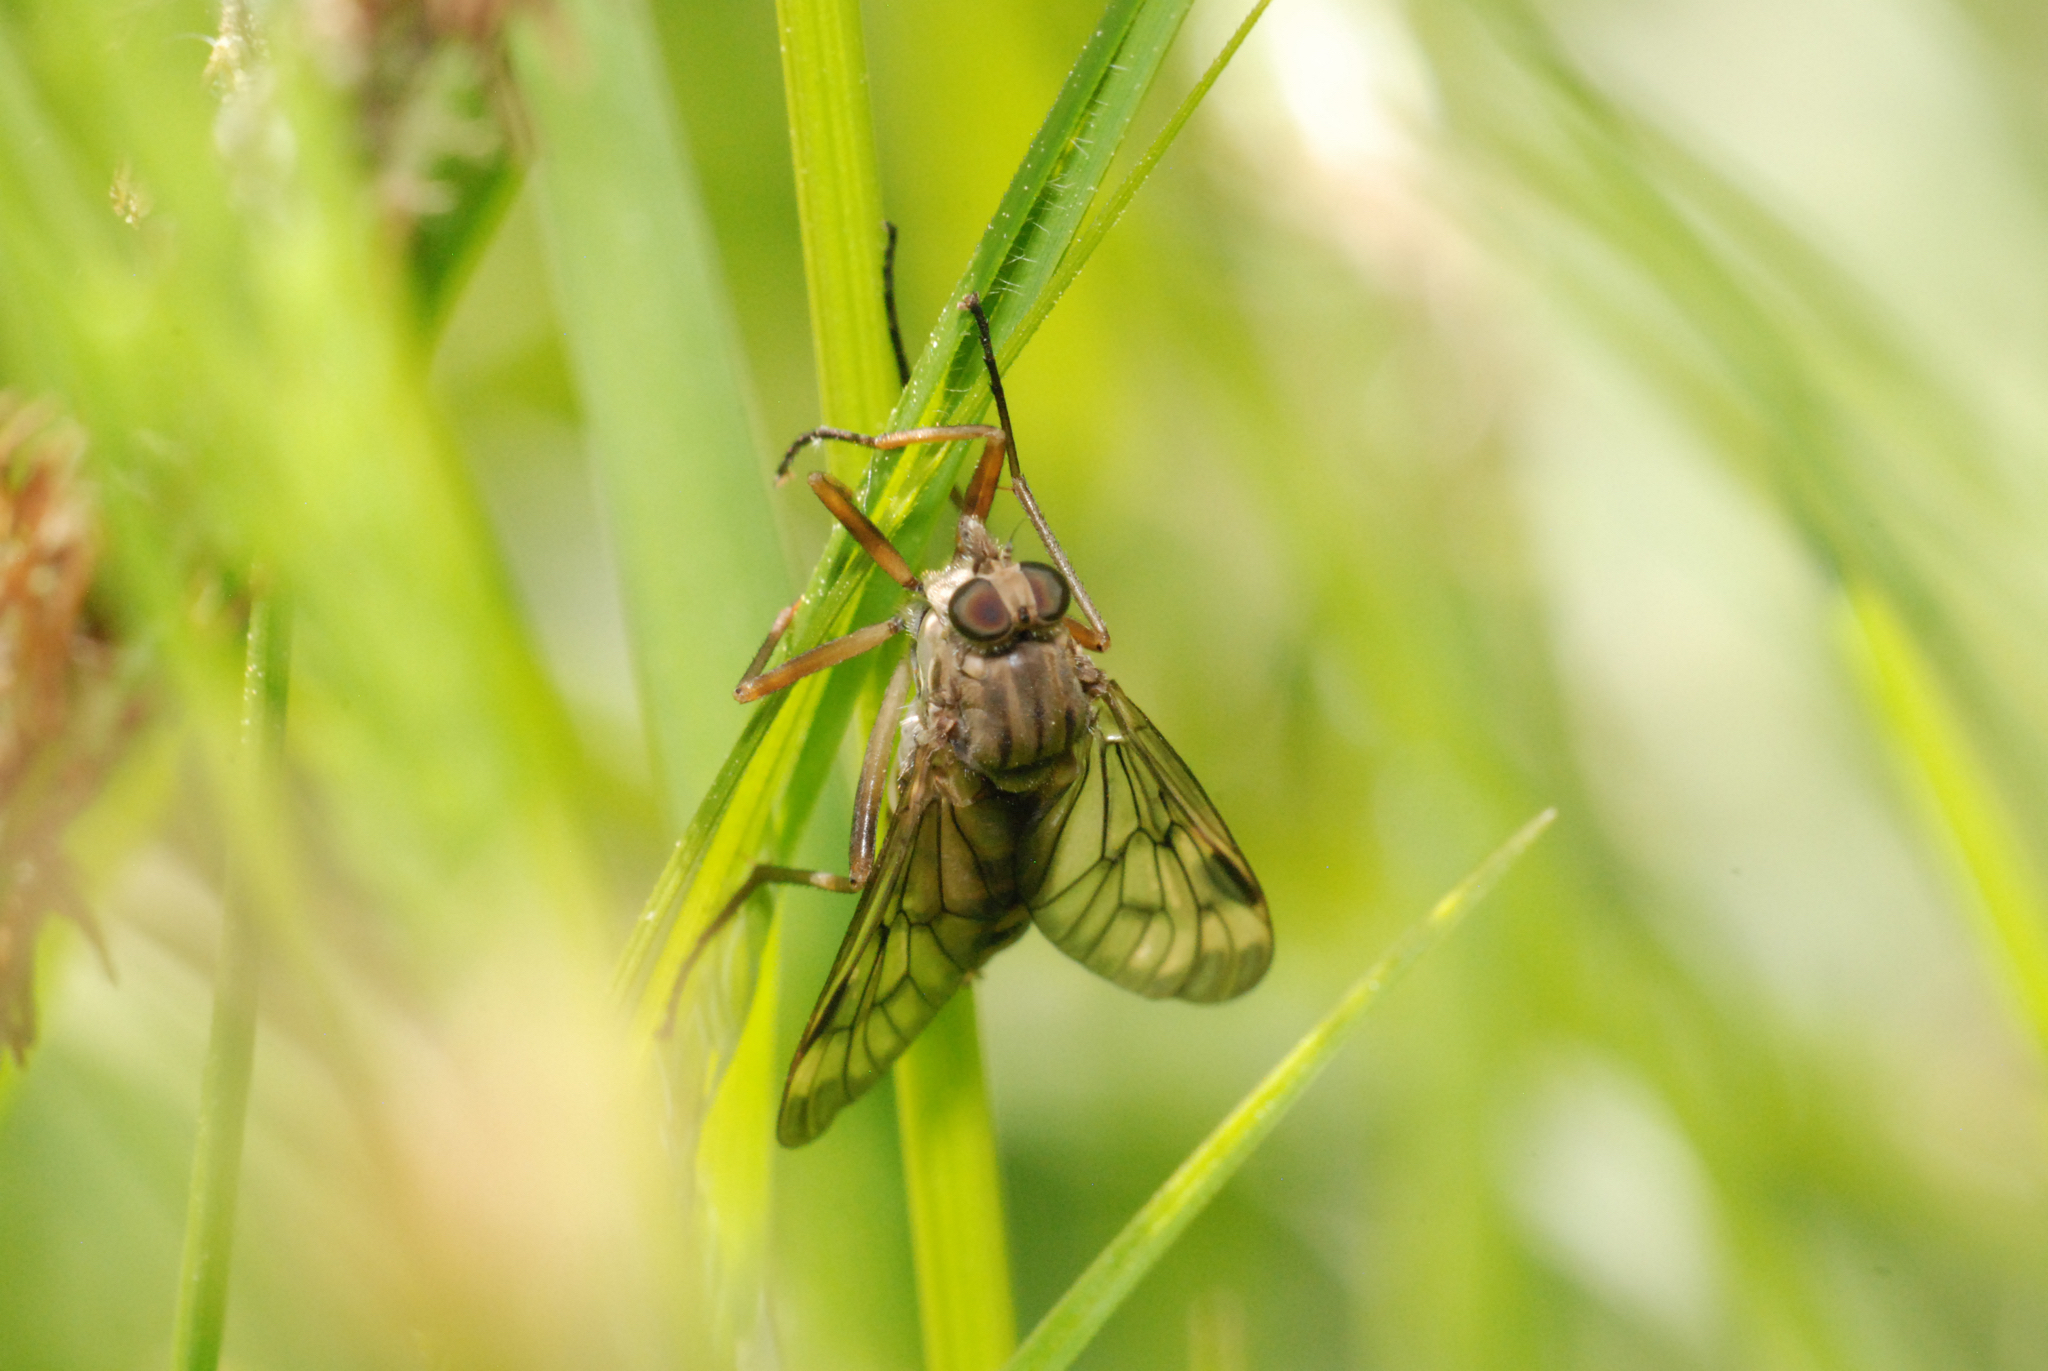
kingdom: Animalia
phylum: Arthropoda
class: Insecta
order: Diptera
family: Rhagionidae
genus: Rhagio
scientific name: Rhagio scolopacea
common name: Downlooker snipefly
